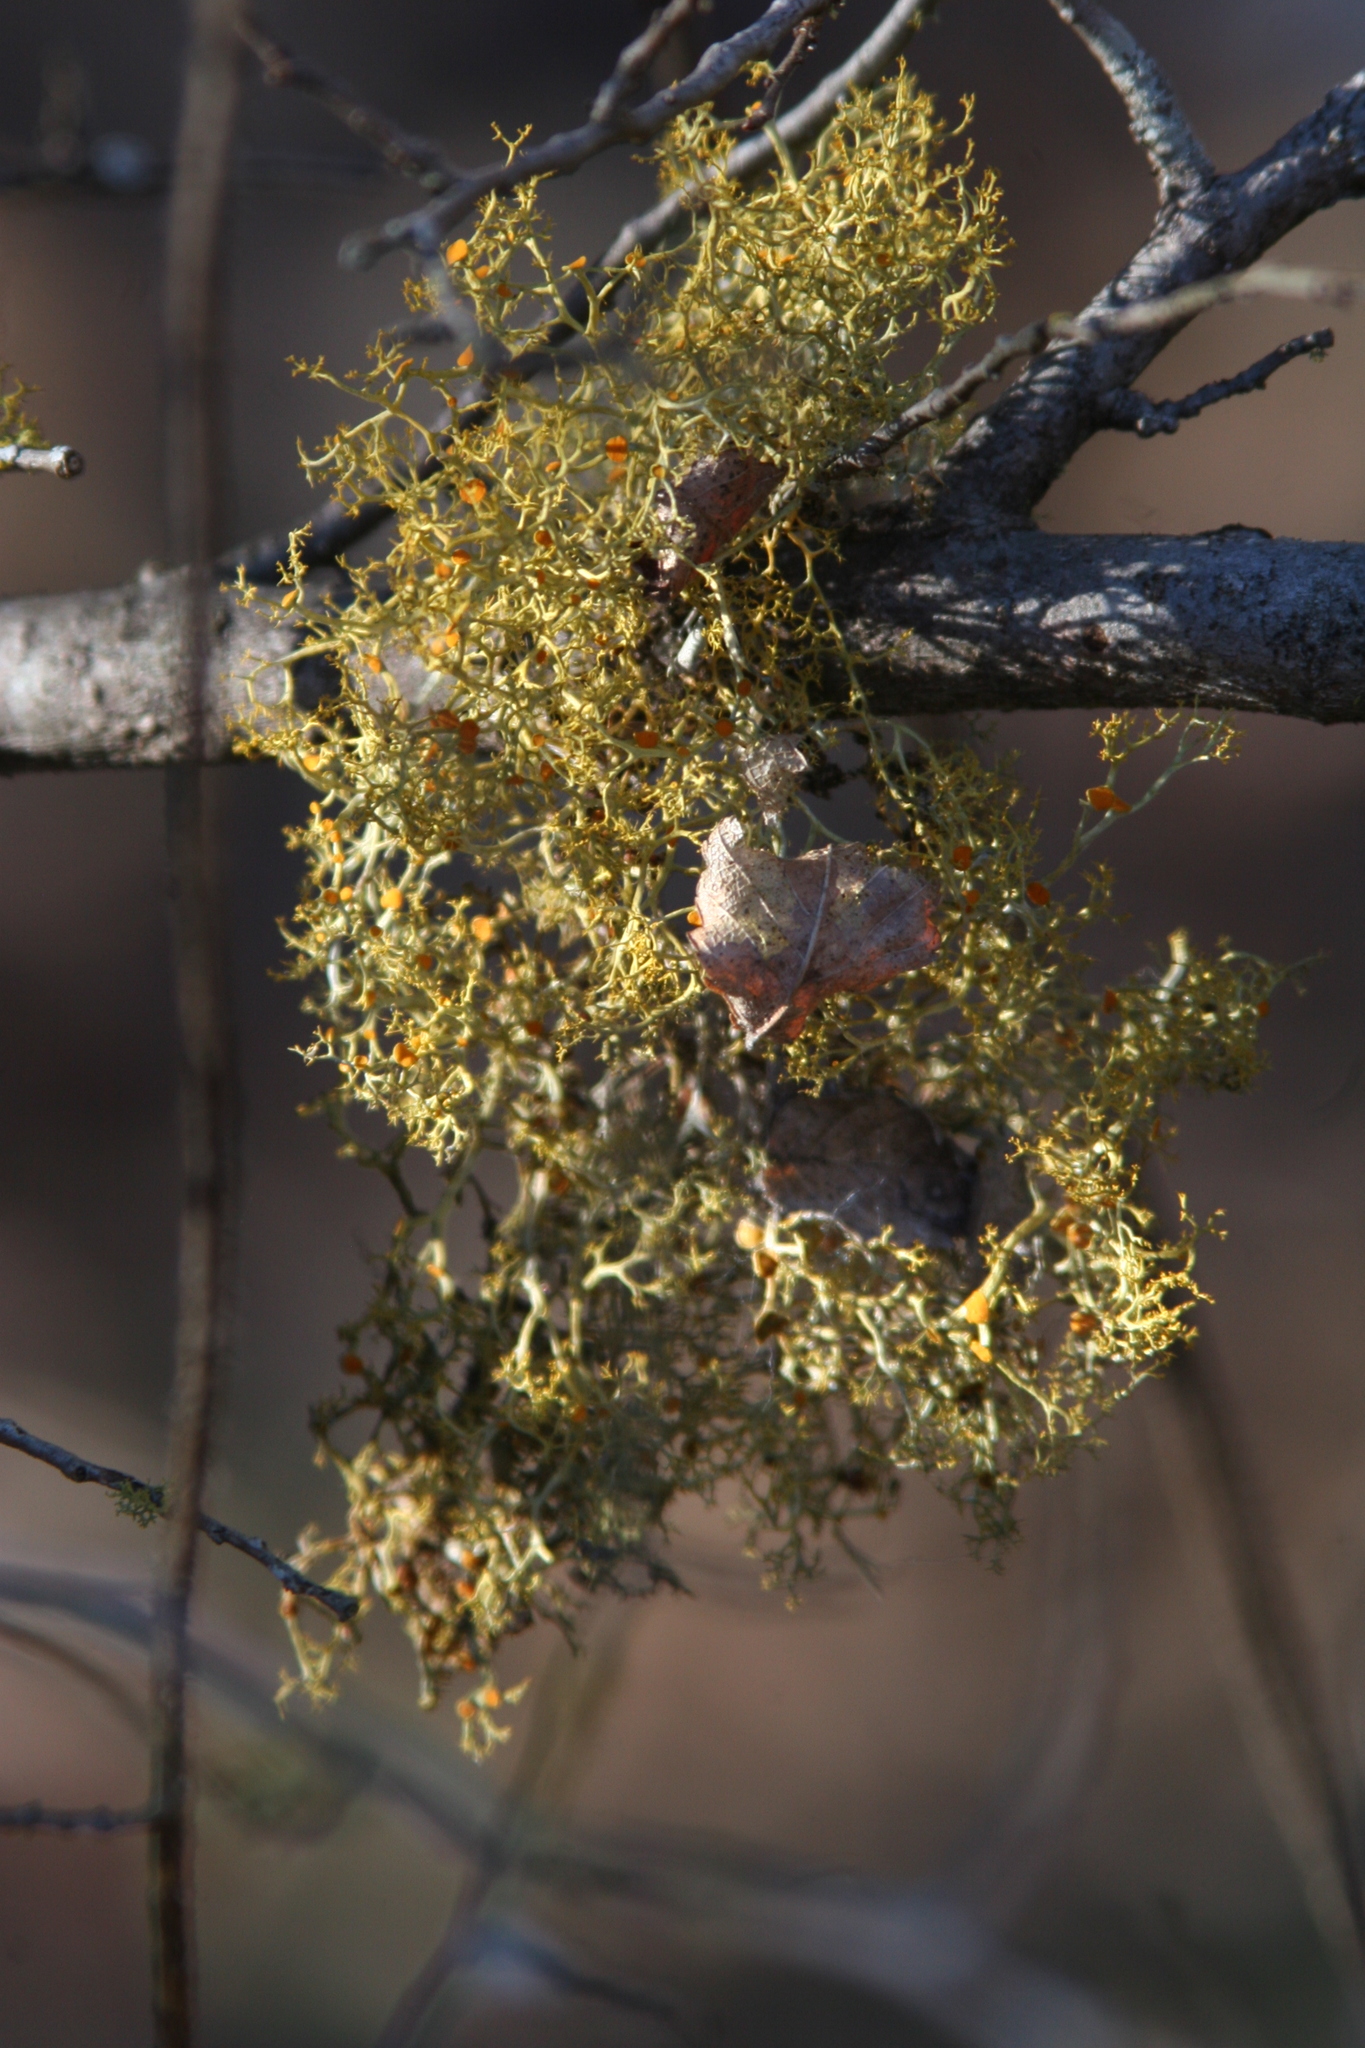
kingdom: Fungi
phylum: Ascomycota
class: Lecanoromycetes
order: Teloschistales
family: Teloschistaceae
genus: Teloschistes
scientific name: Teloschistes exilis
